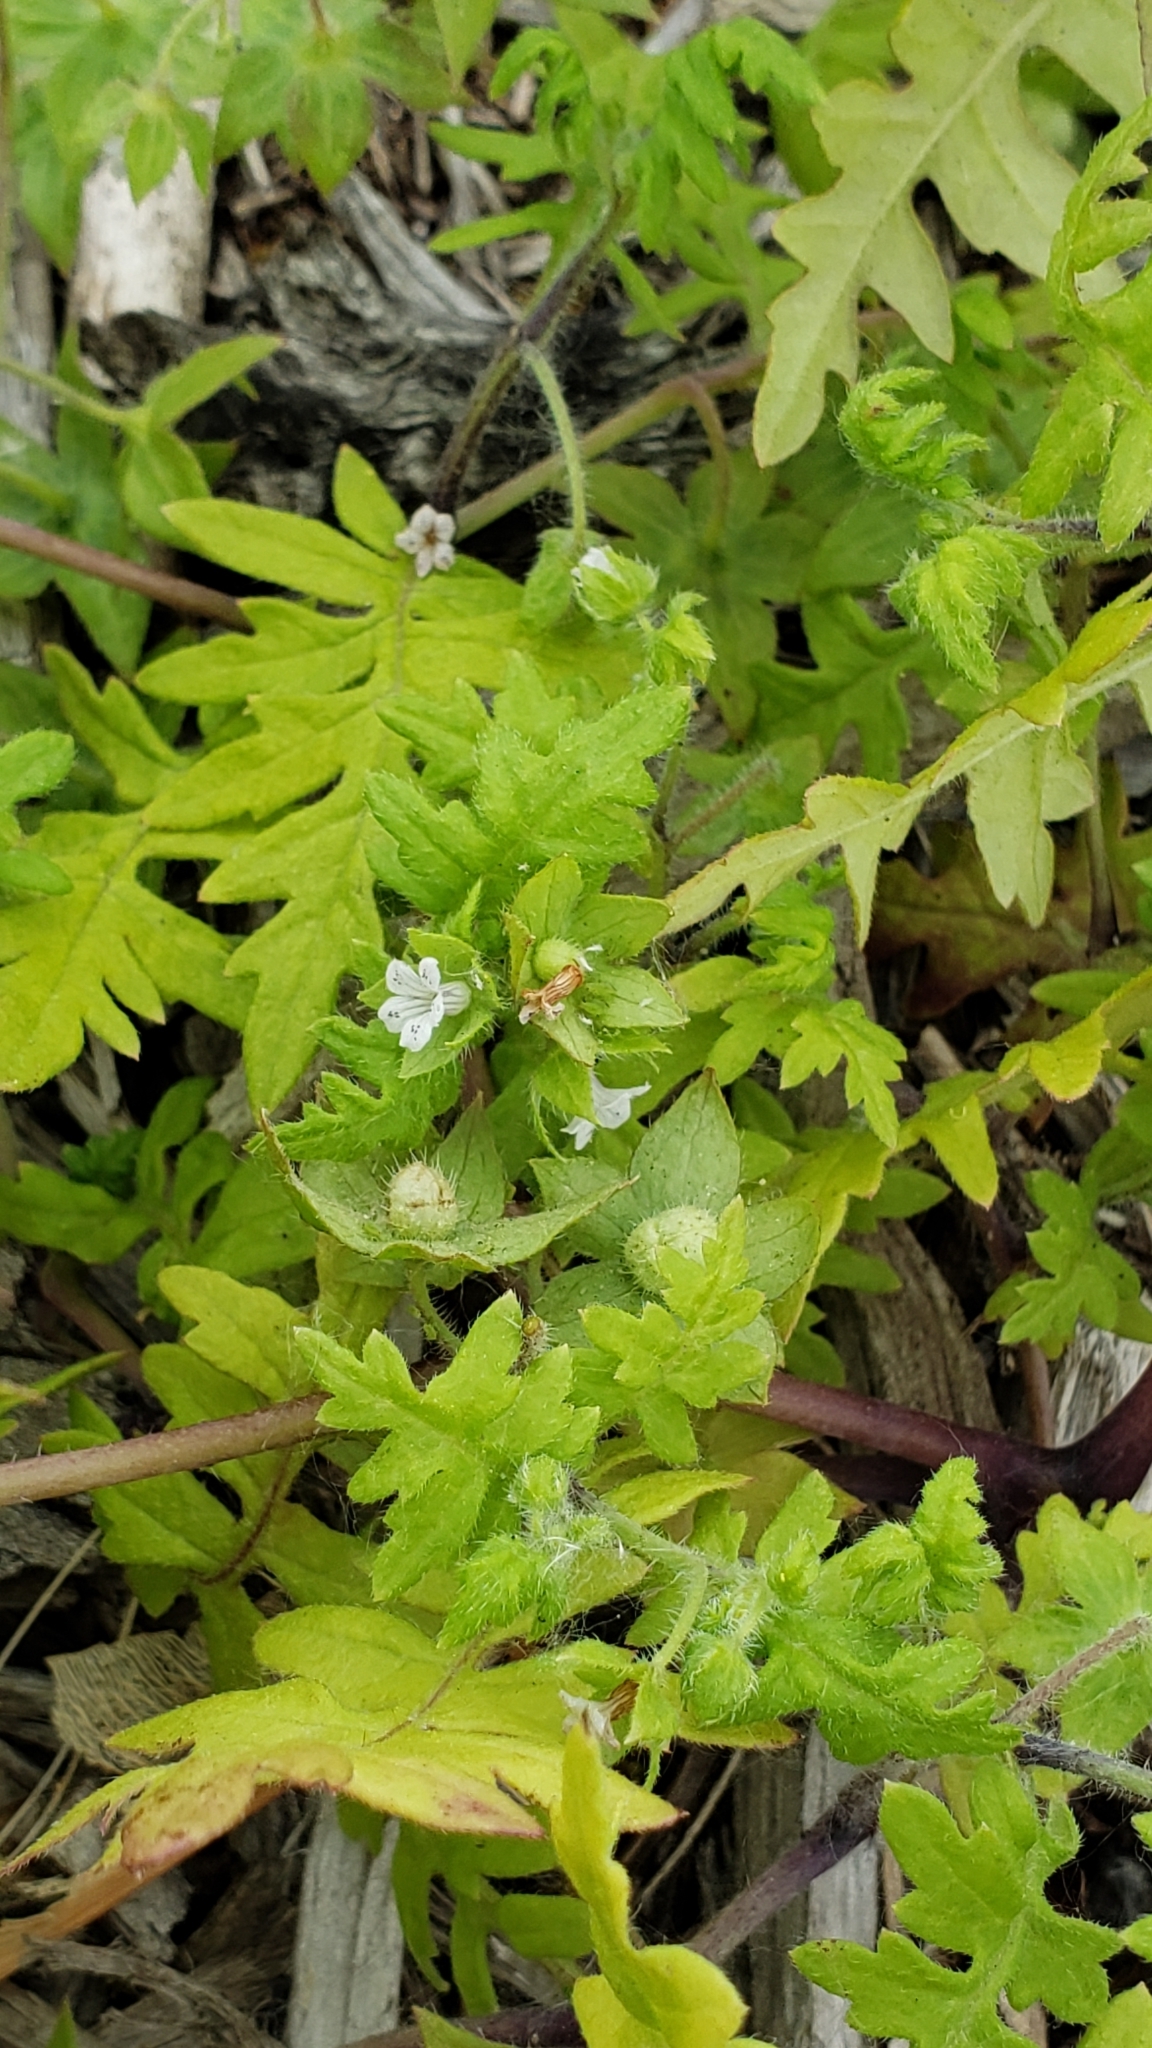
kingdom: Plantae
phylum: Tracheophyta
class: Magnoliopsida
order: Boraginales
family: Hydrophyllaceae
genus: Ellisia
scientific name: Ellisia nyctelea
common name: Aunt lucy
